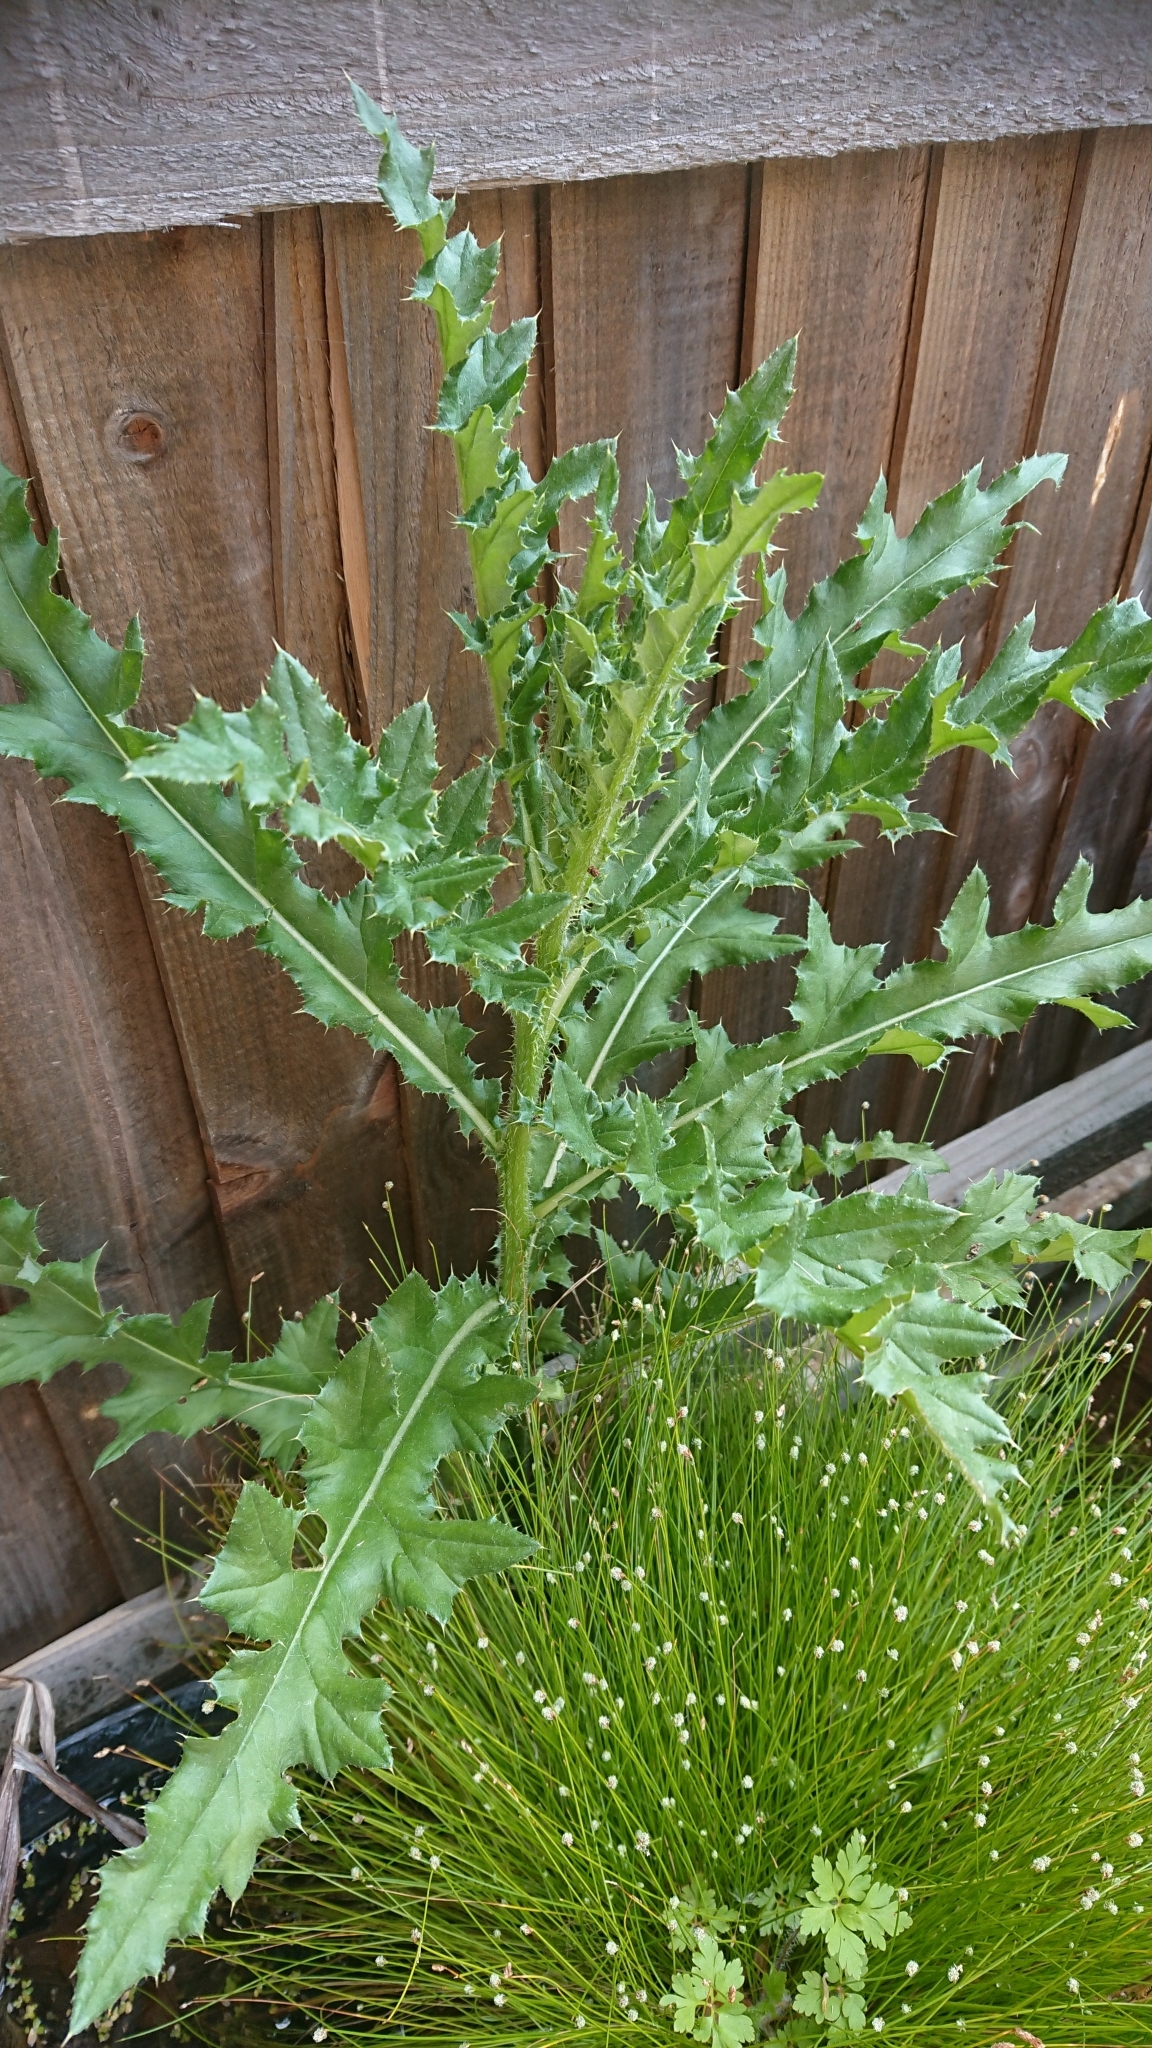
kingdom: Plantae
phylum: Tracheophyta
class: Magnoliopsida
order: Asterales
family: Asteraceae
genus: Cirsium
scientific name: Cirsium arvense
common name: Creeping thistle
